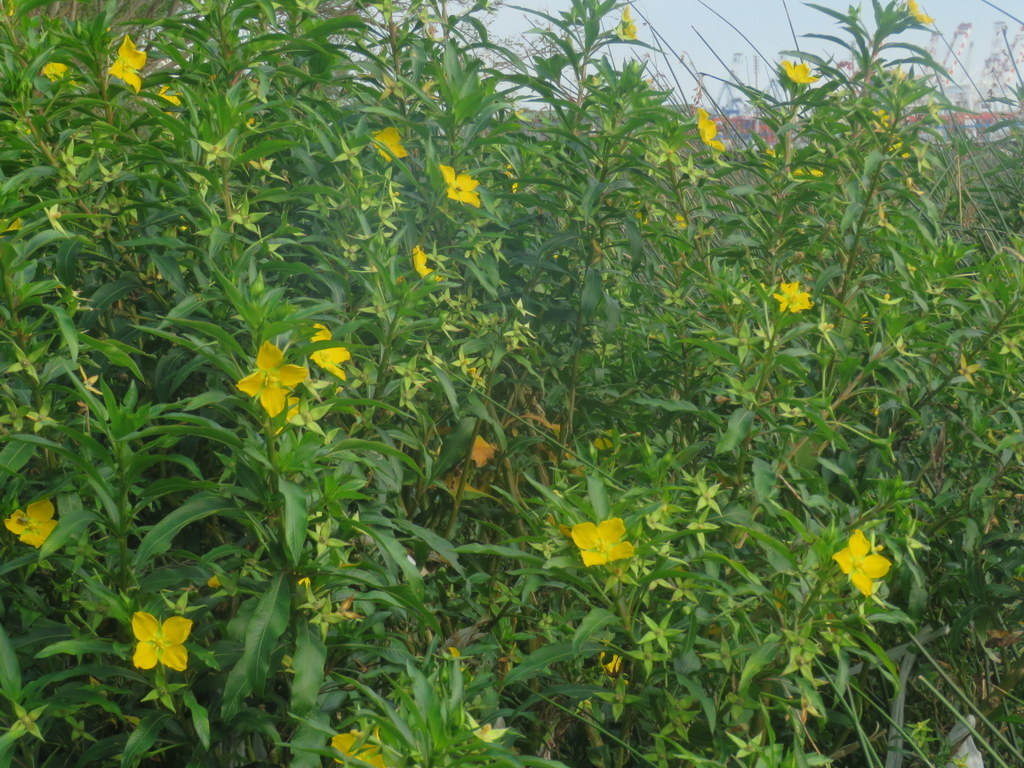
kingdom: Plantae
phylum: Tracheophyta
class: Magnoliopsida
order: Myrtales
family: Onagraceae
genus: Ludwigia
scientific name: Ludwigia elegans
